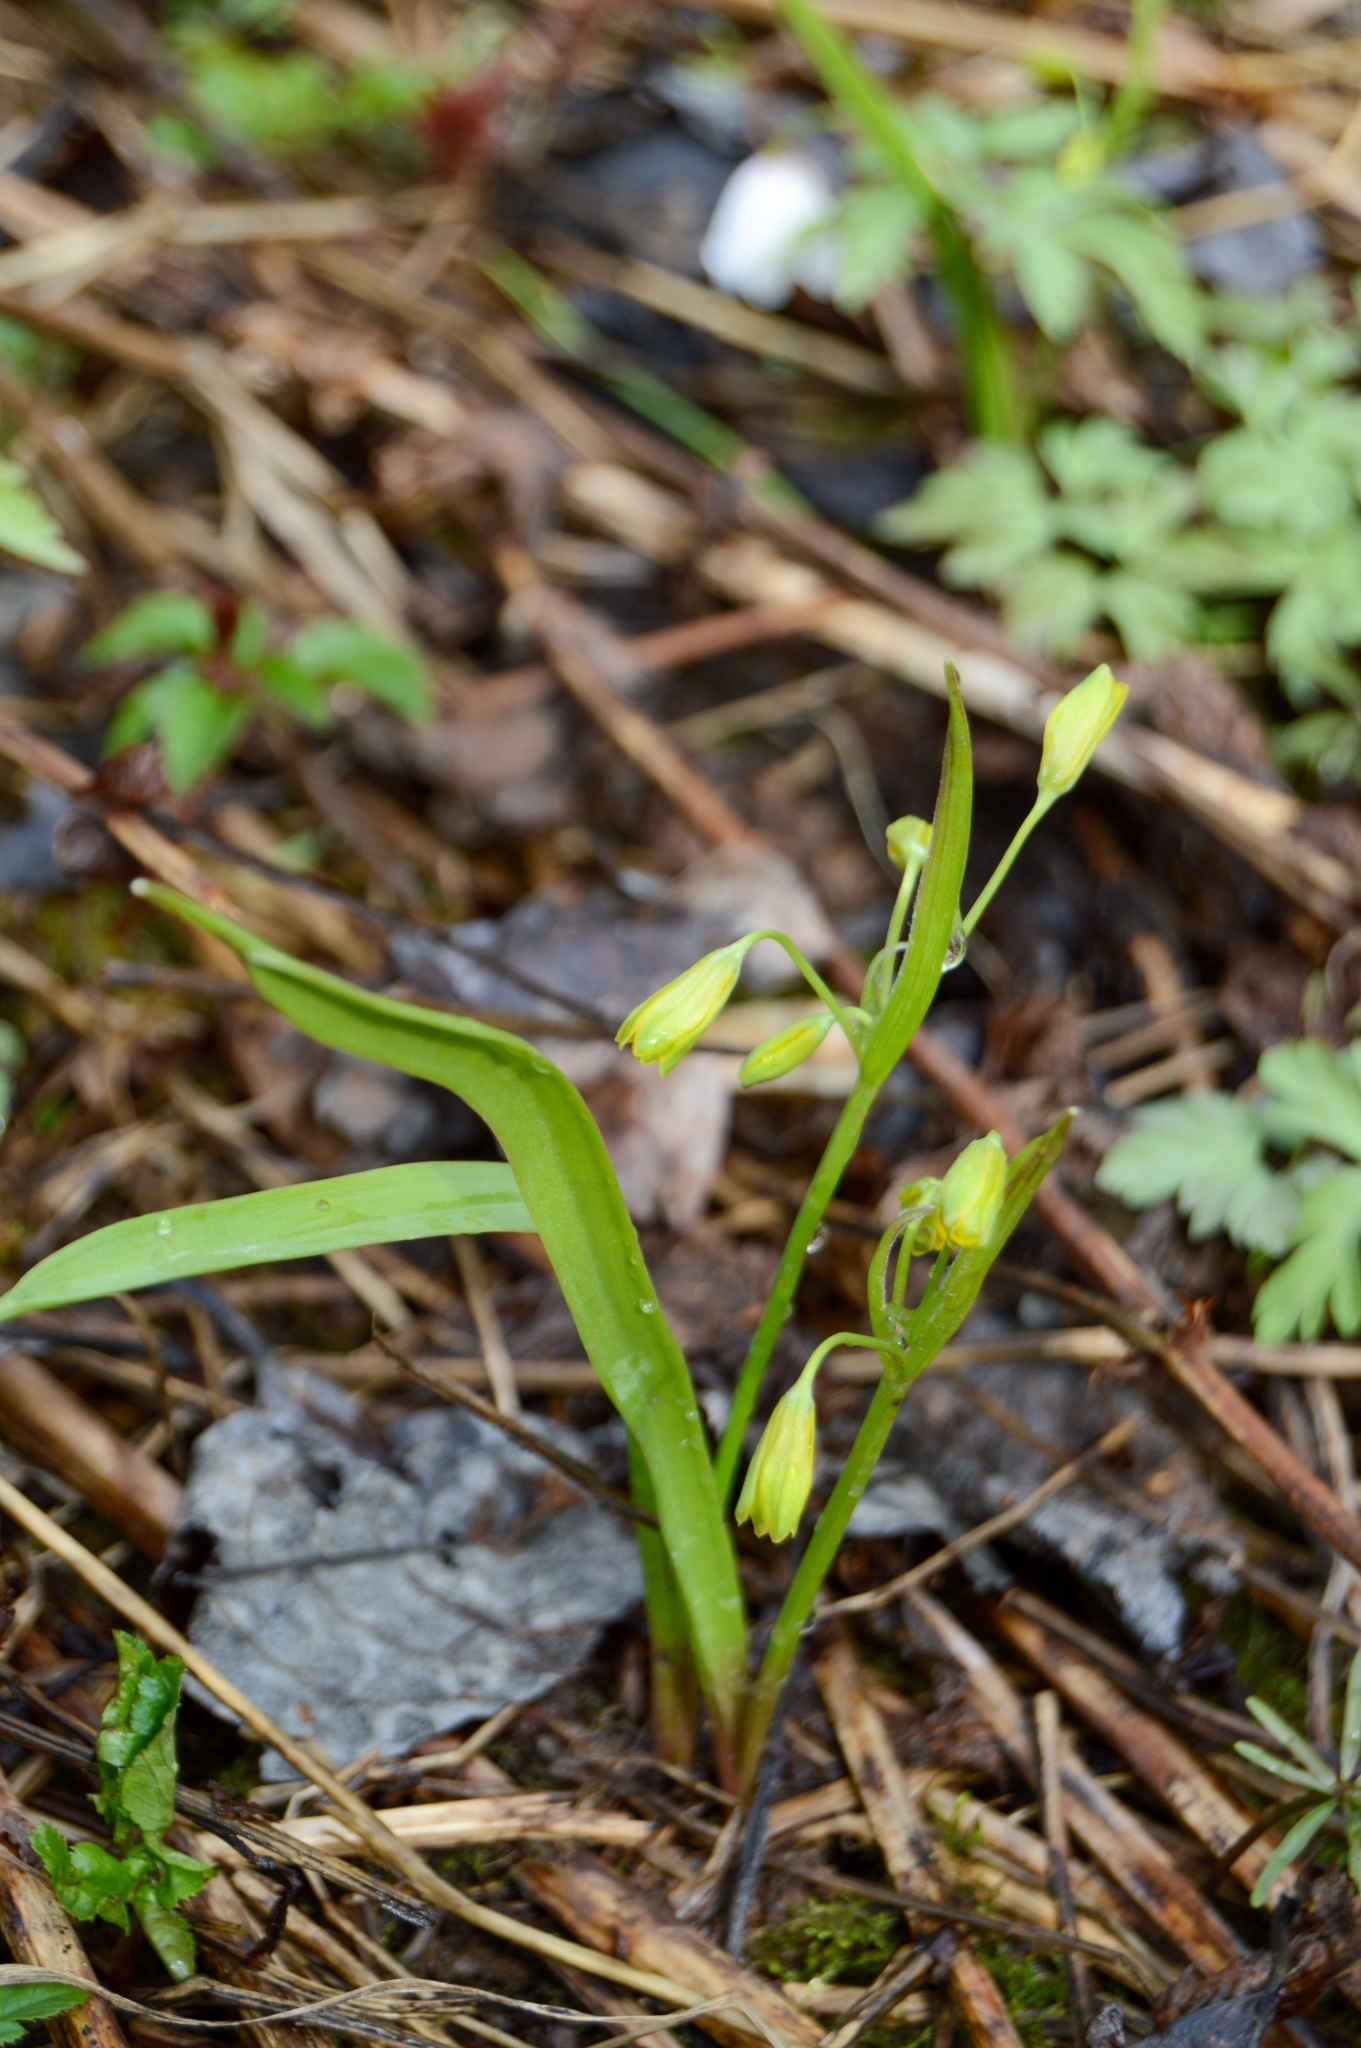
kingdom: Plantae
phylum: Tracheophyta
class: Liliopsida
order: Liliales
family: Liliaceae
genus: Gagea
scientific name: Gagea lutea
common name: Yellow star-of-bethlehem
